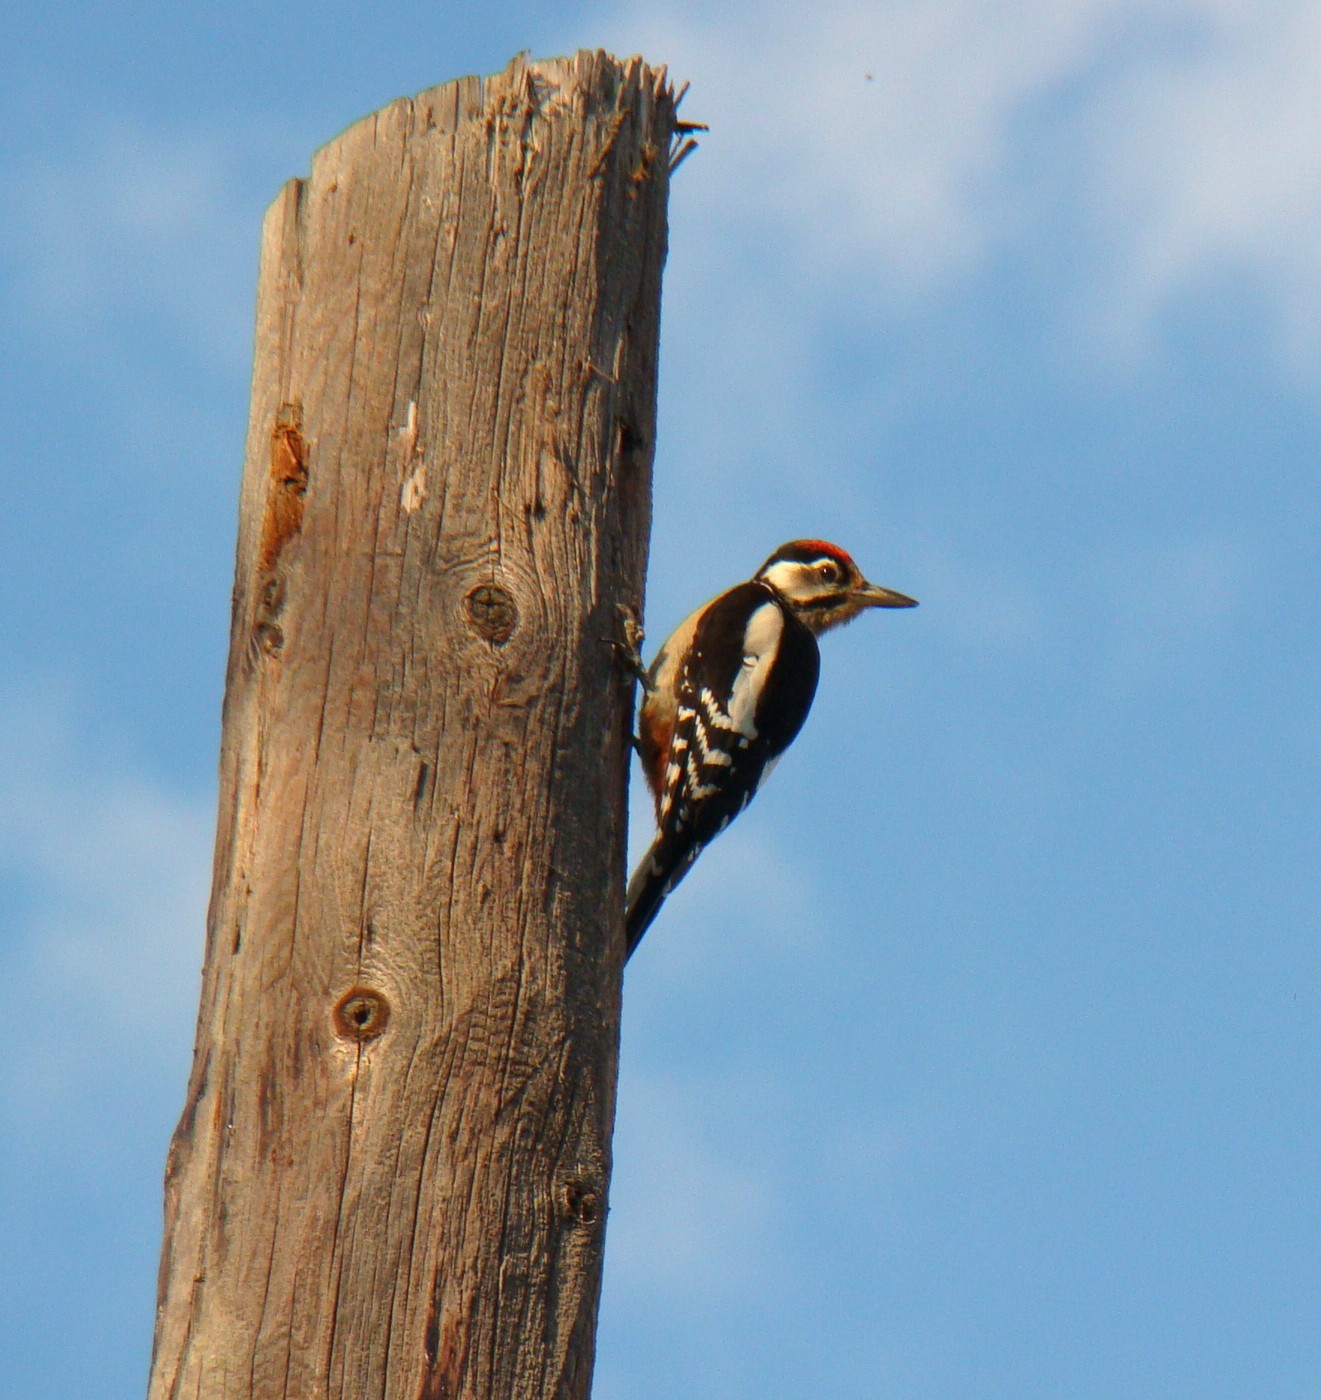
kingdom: Animalia
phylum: Chordata
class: Aves
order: Piciformes
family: Picidae
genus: Dendrocopos
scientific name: Dendrocopos major
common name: Great spotted woodpecker
